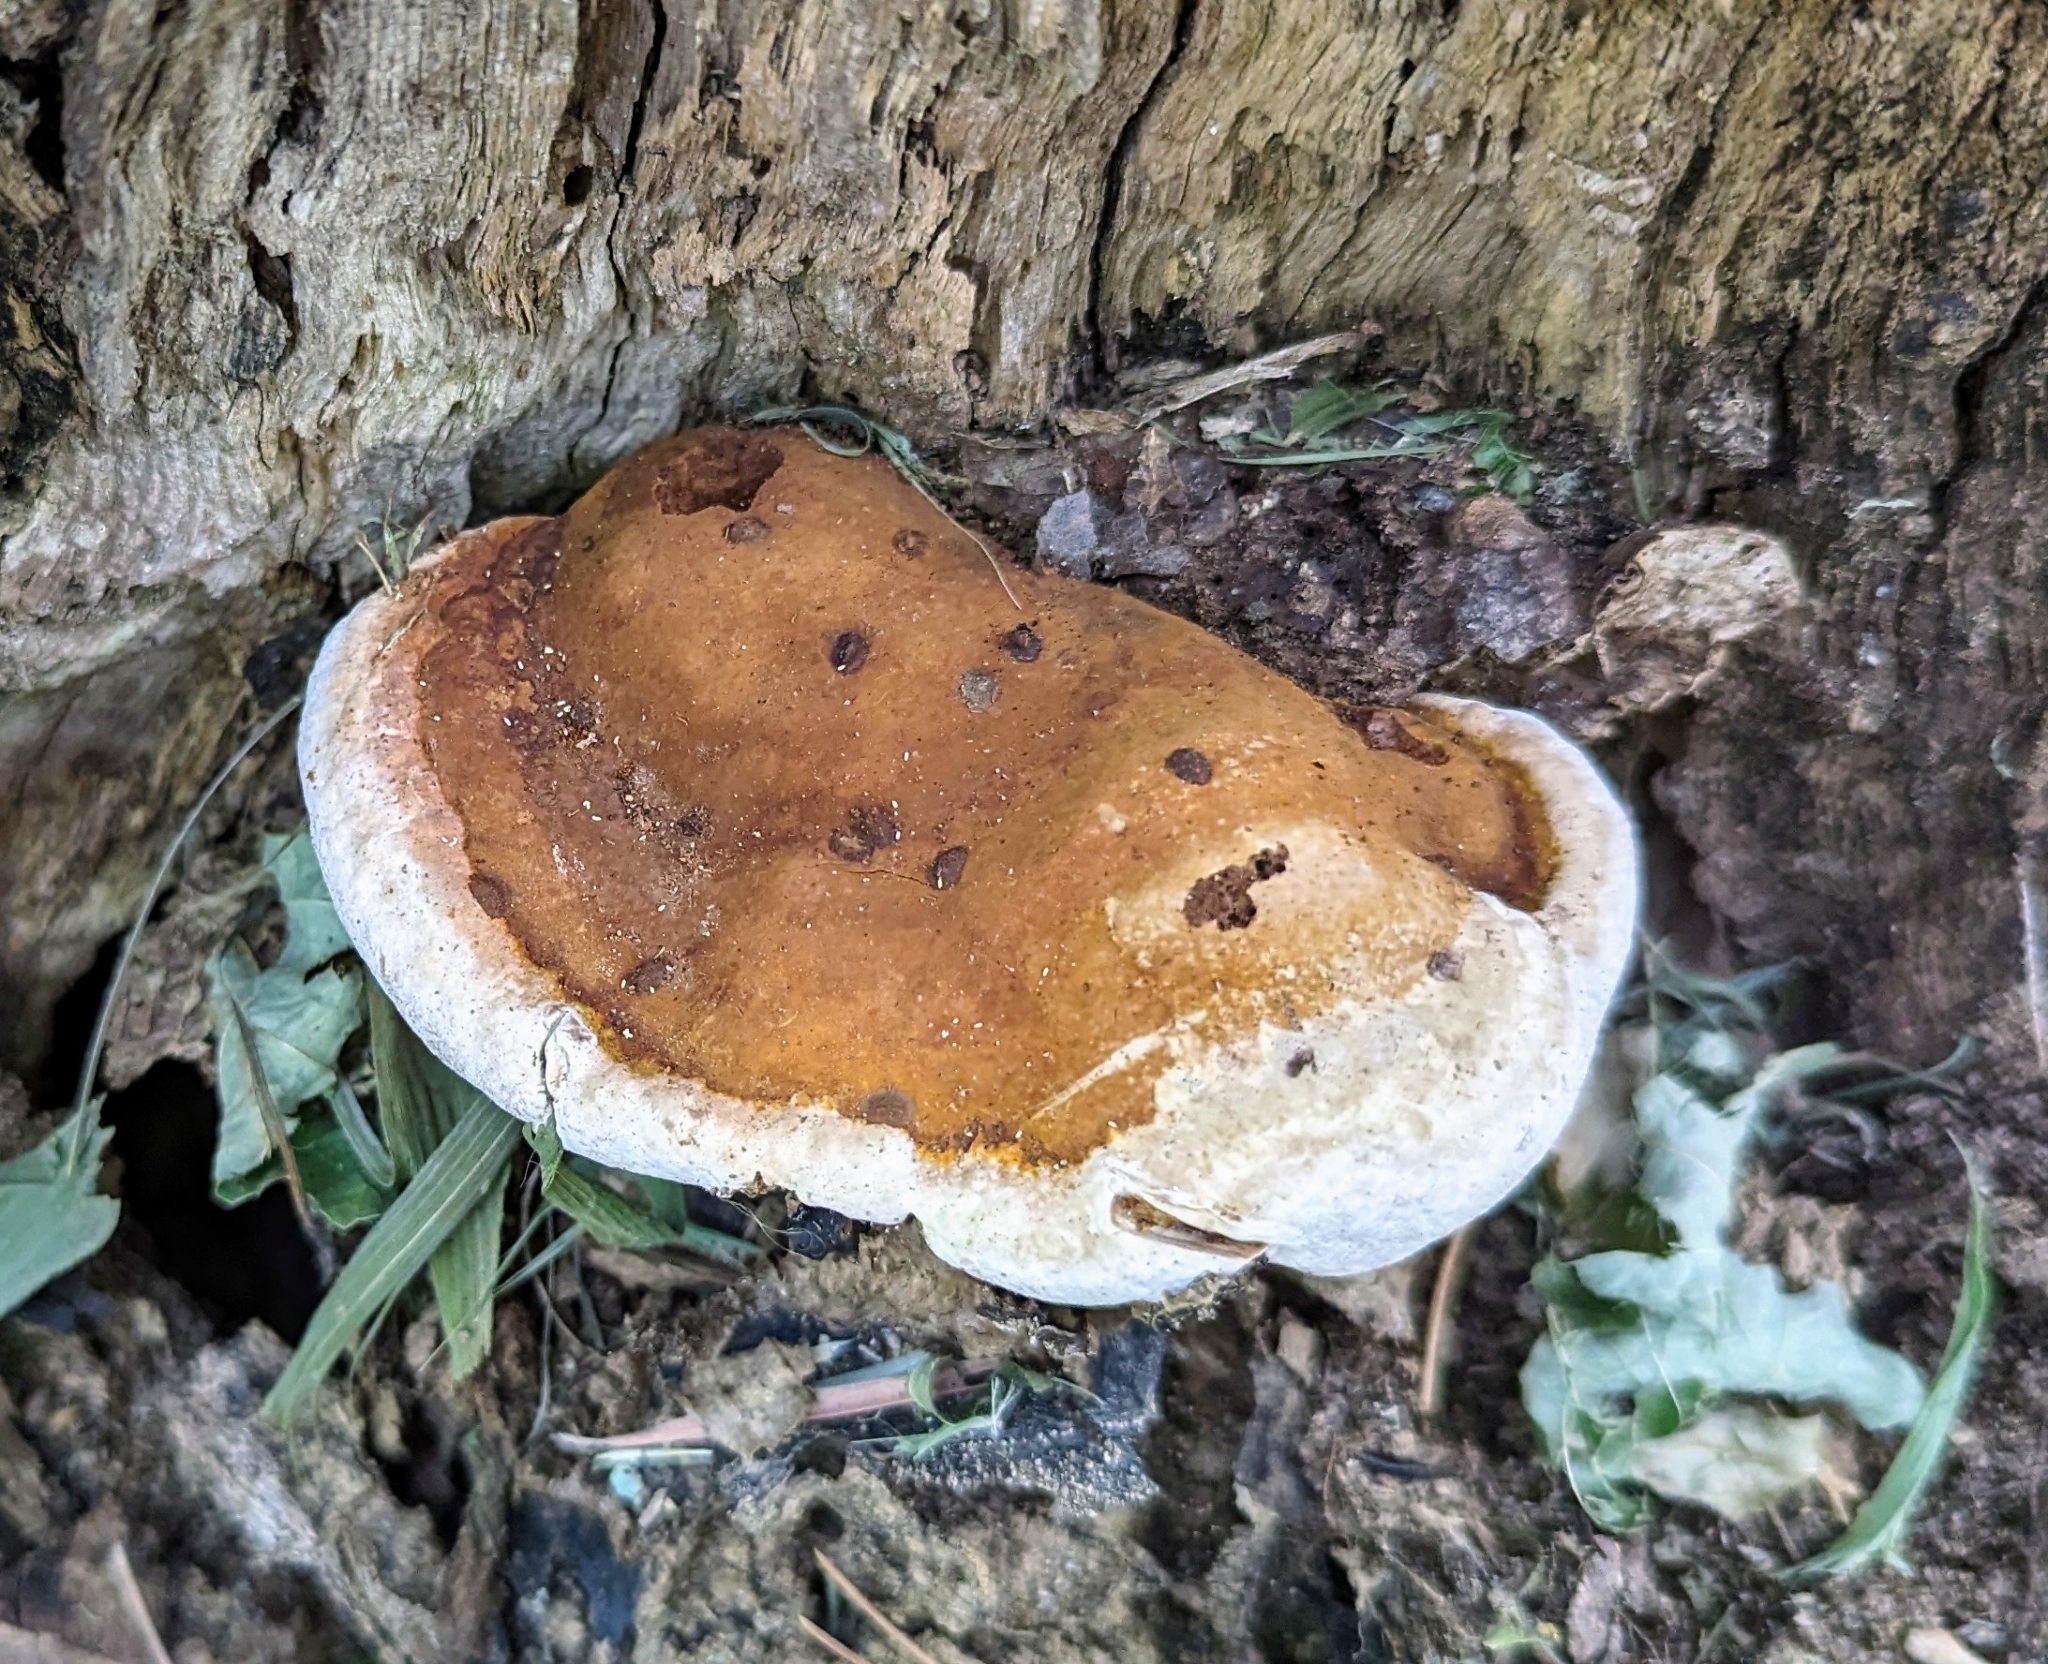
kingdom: Fungi
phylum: Basidiomycota
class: Agaricomycetes
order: Polyporales
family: Polyporaceae
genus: Ganoderma
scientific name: Ganoderma lobatum
